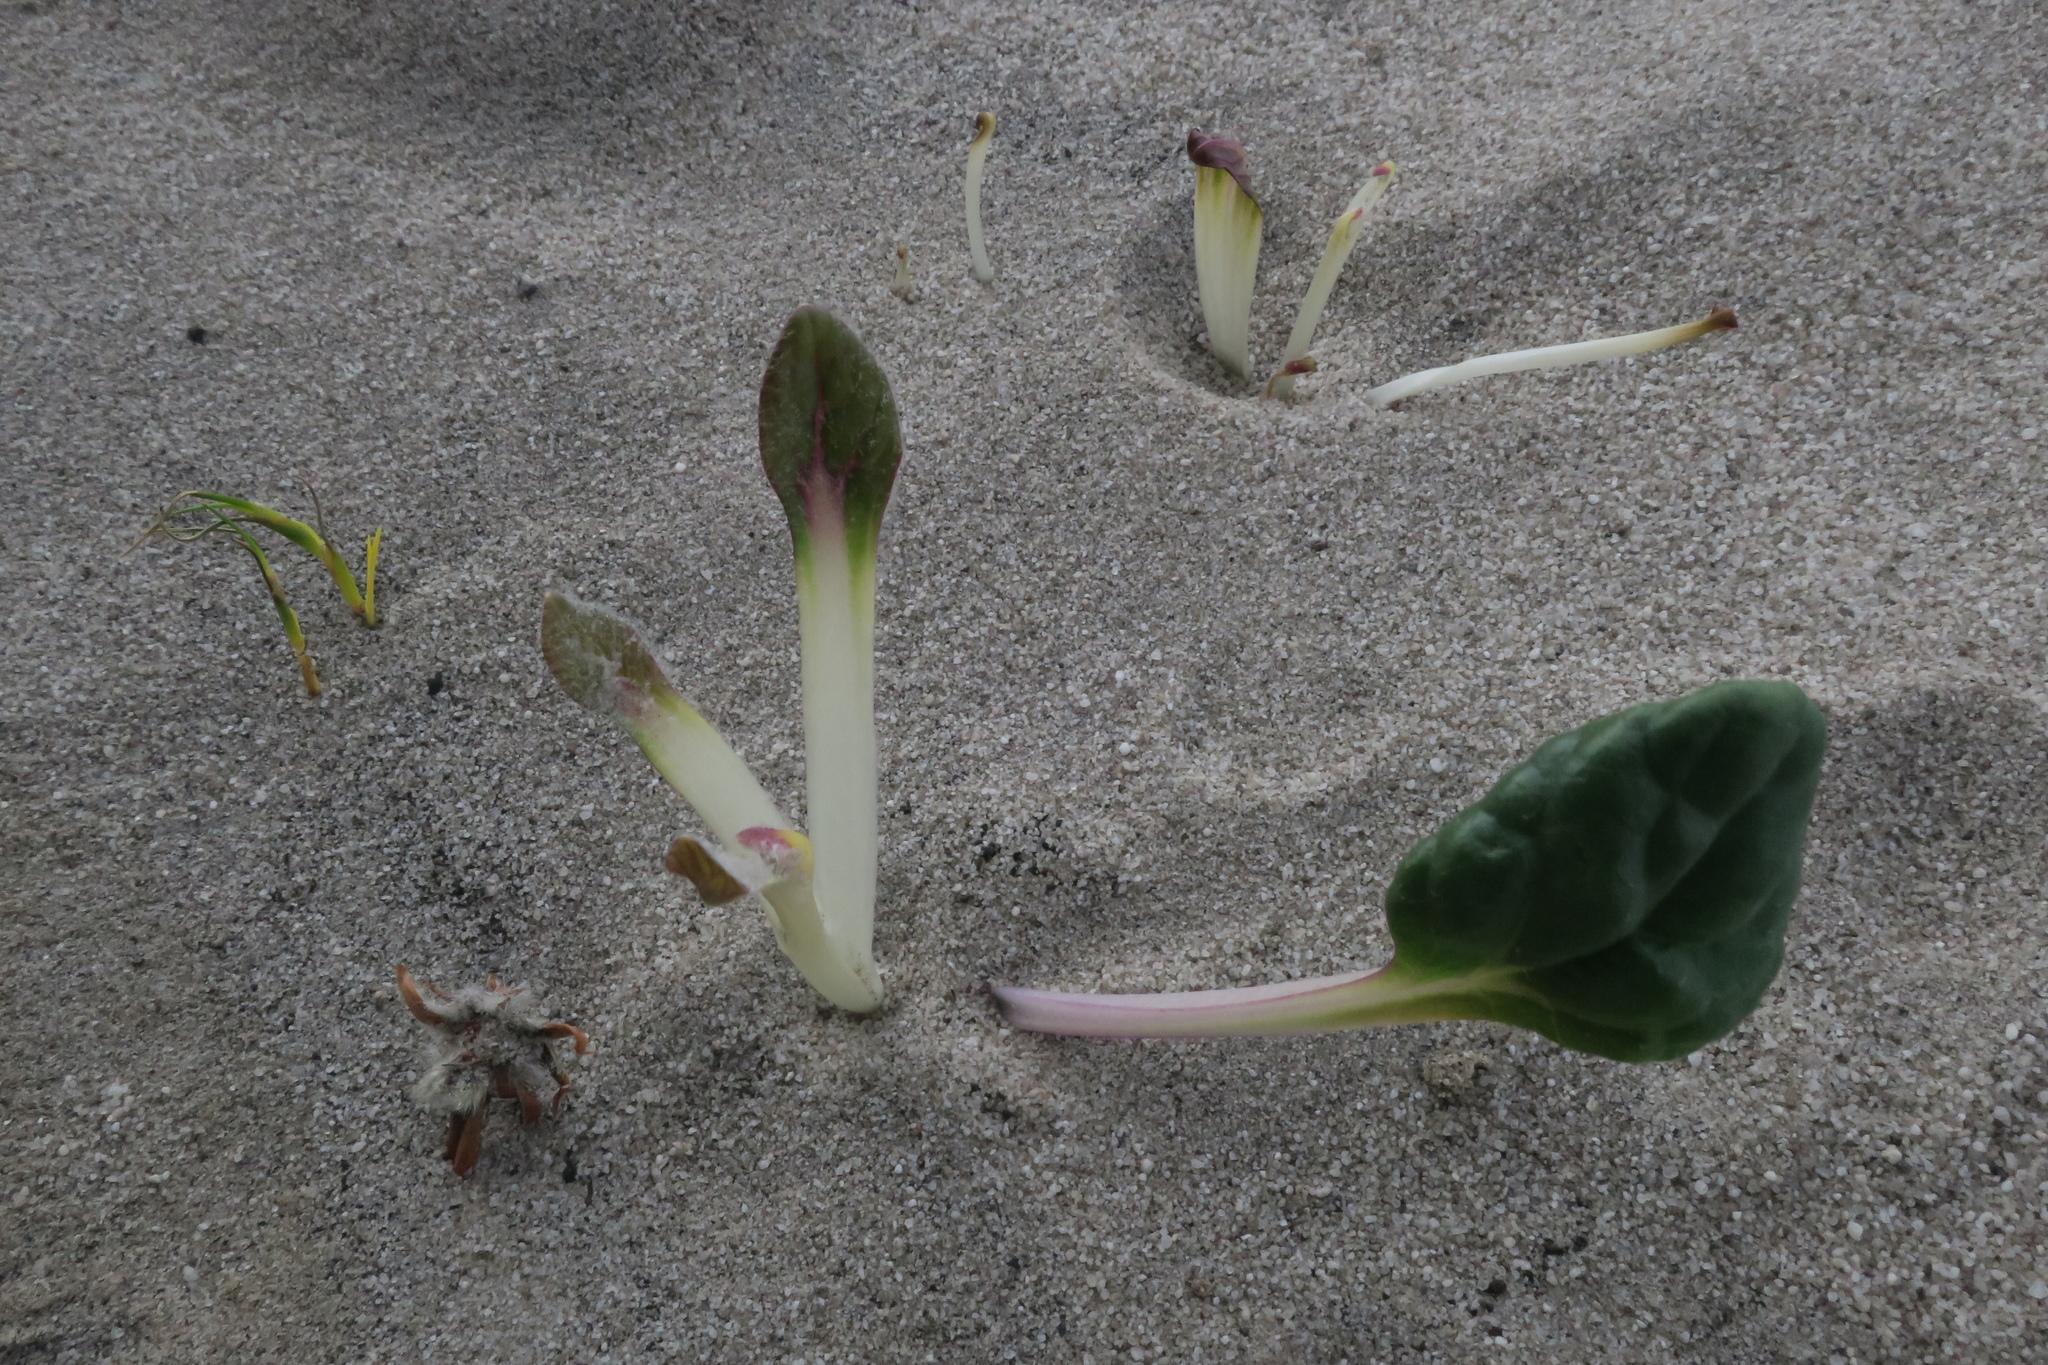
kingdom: Plantae
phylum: Tracheophyta
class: Magnoliopsida
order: Asterales
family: Asteraceae
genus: Othonna
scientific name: Othonna bulbosa
